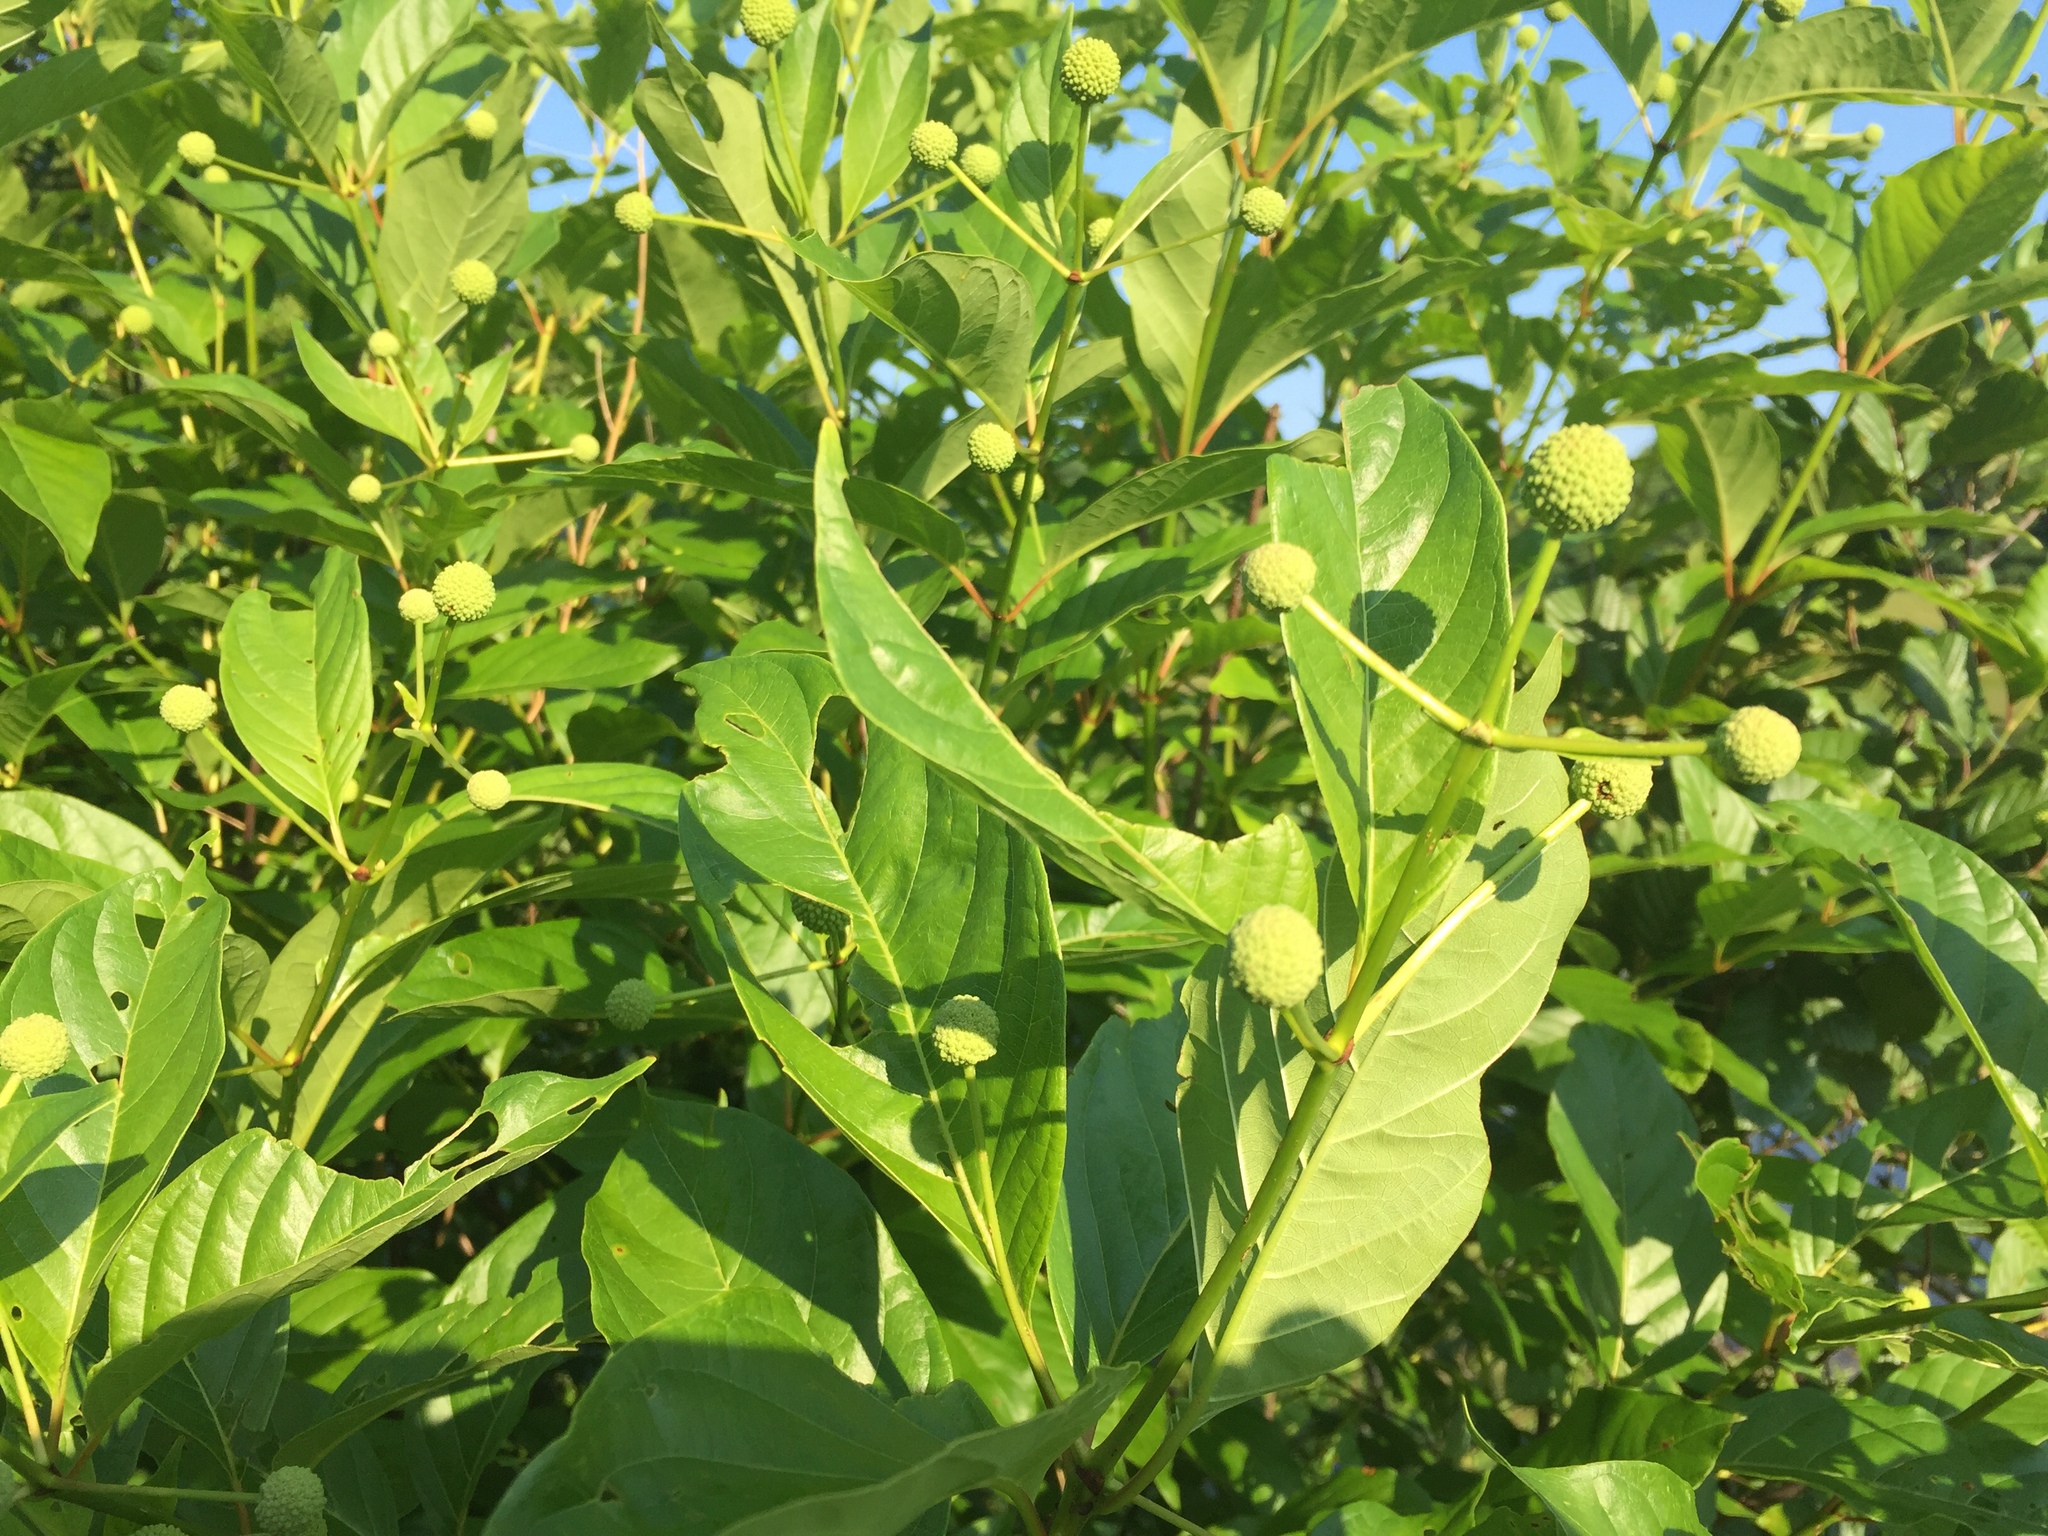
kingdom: Plantae
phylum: Tracheophyta
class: Magnoliopsida
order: Gentianales
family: Rubiaceae
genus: Cephalanthus
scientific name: Cephalanthus occidentalis
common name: Button-willow
